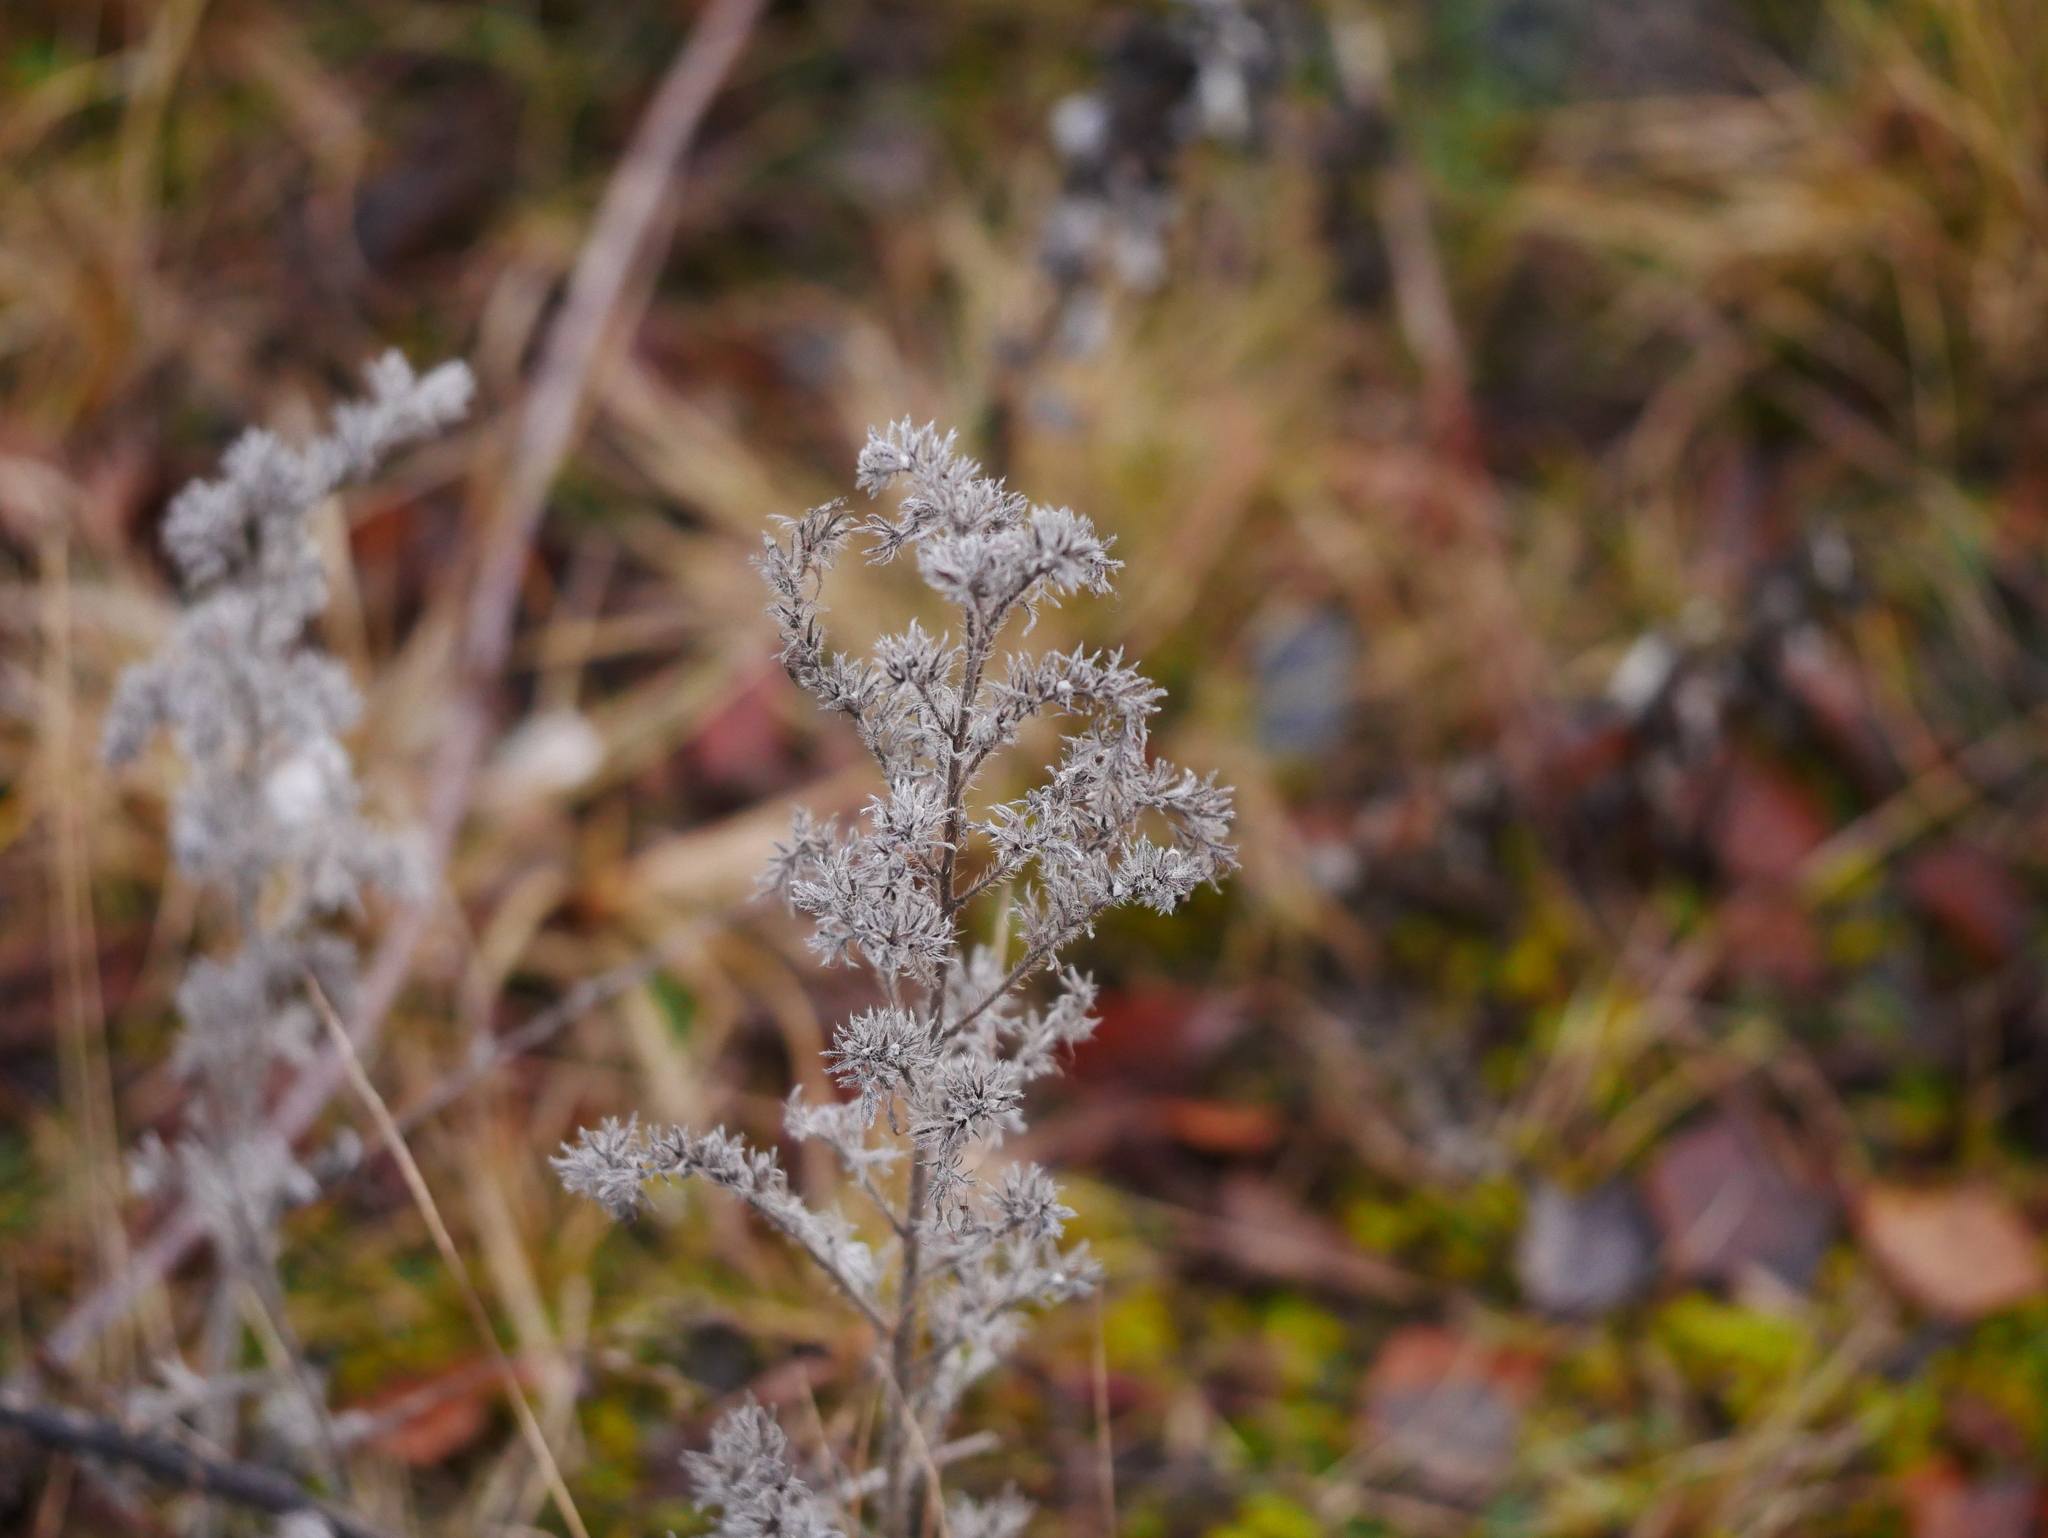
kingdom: Plantae
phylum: Tracheophyta
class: Magnoliopsida
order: Boraginales
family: Boraginaceae
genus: Echium
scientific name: Echium vulgare
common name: Common viper's bugloss
